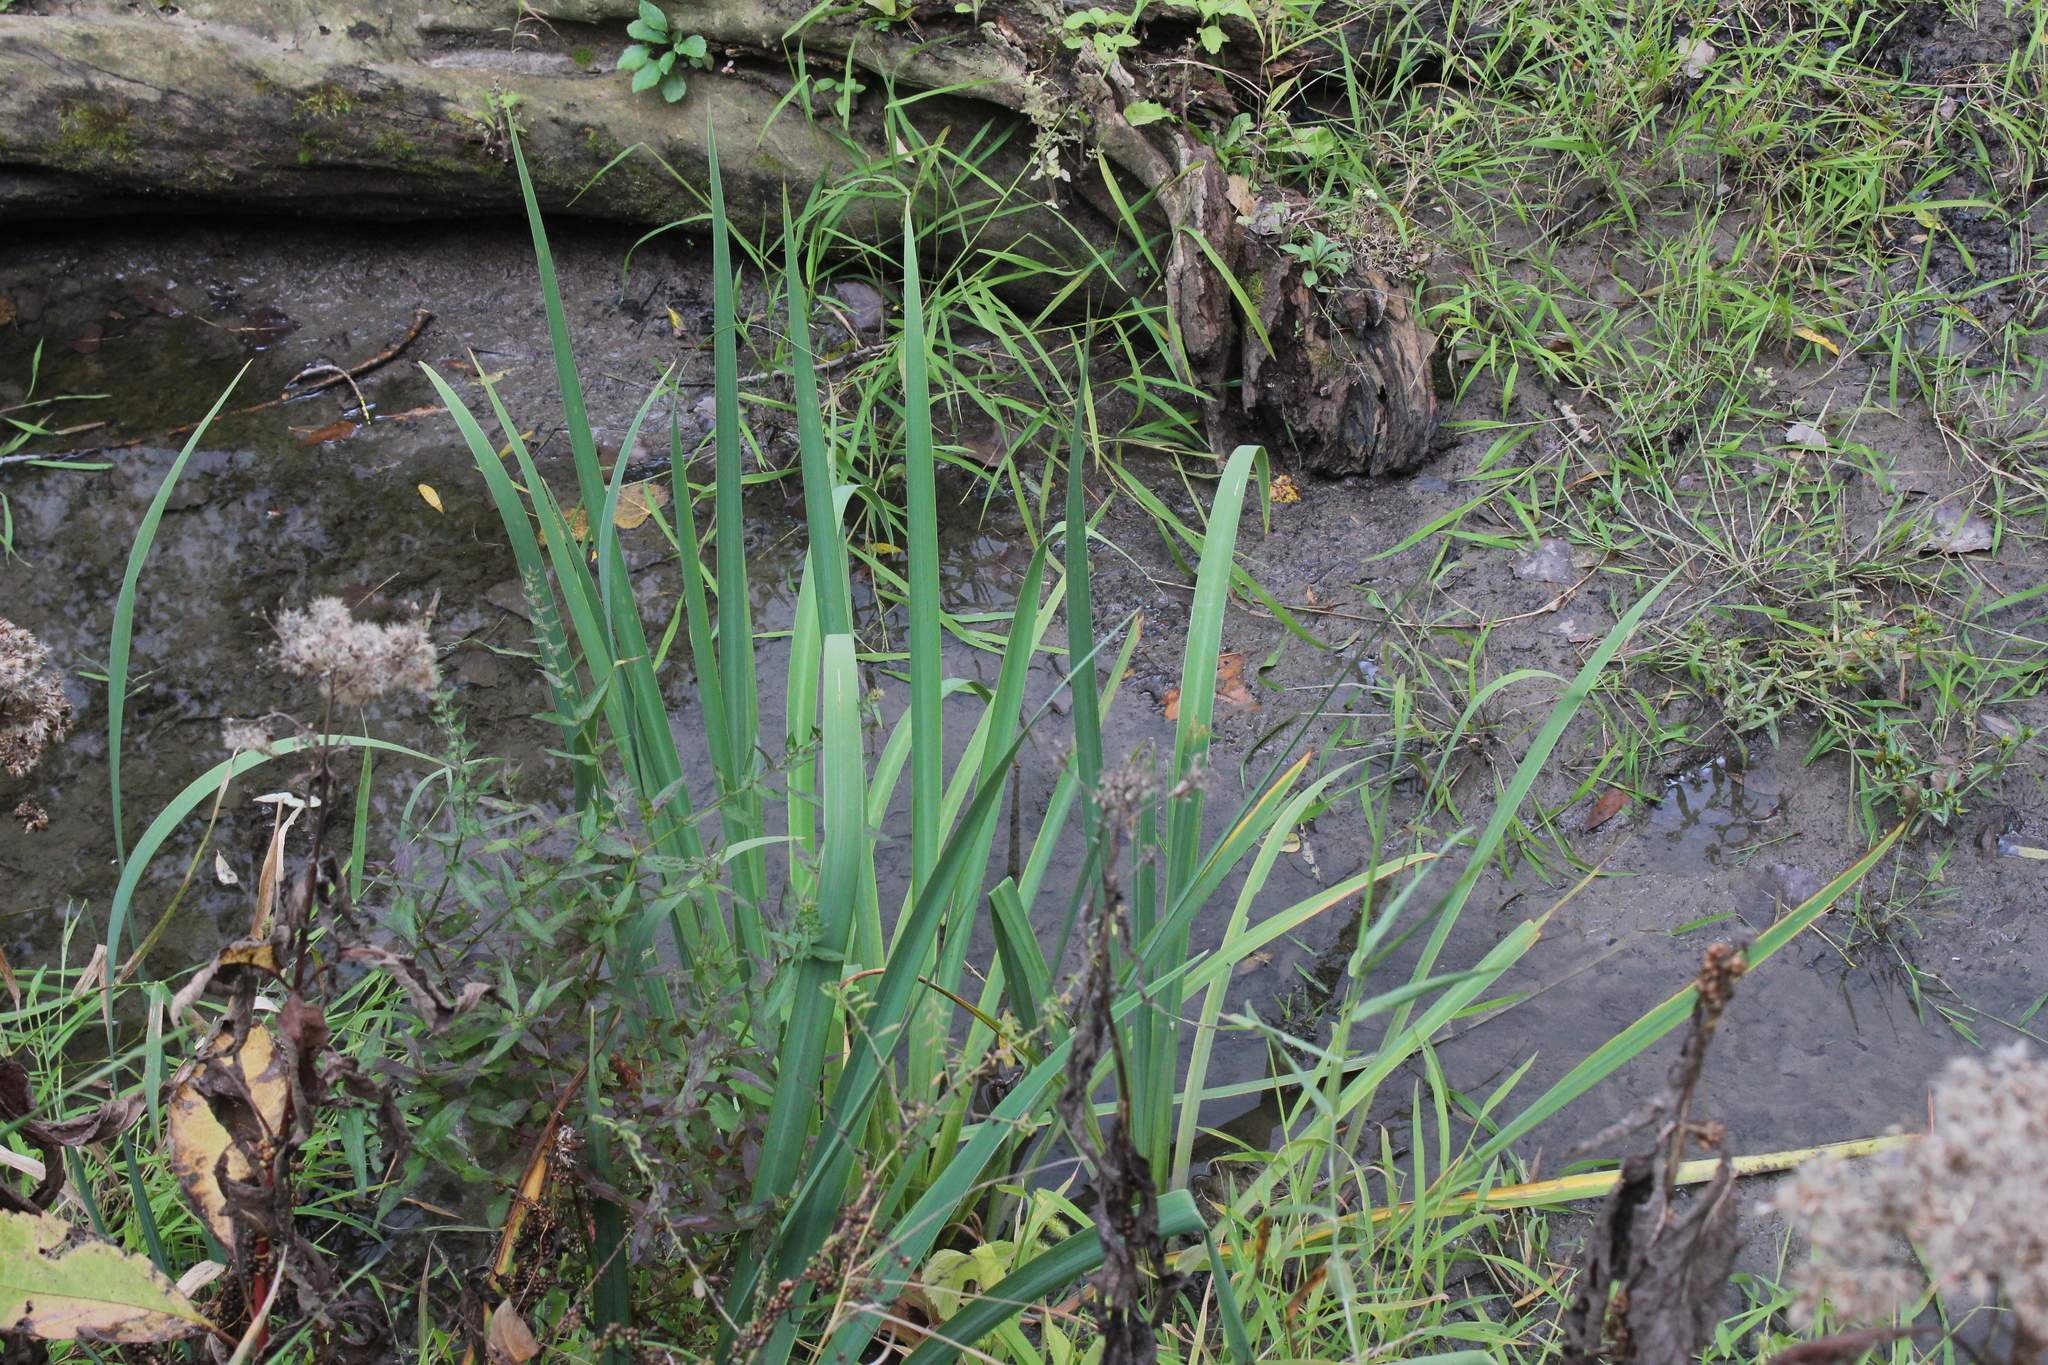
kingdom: Plantae
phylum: Tracheophyta
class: Liliopsida
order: Asparagales
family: Iridaceae
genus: Iris
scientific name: Iris pseudacorus
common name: Yellow flag
